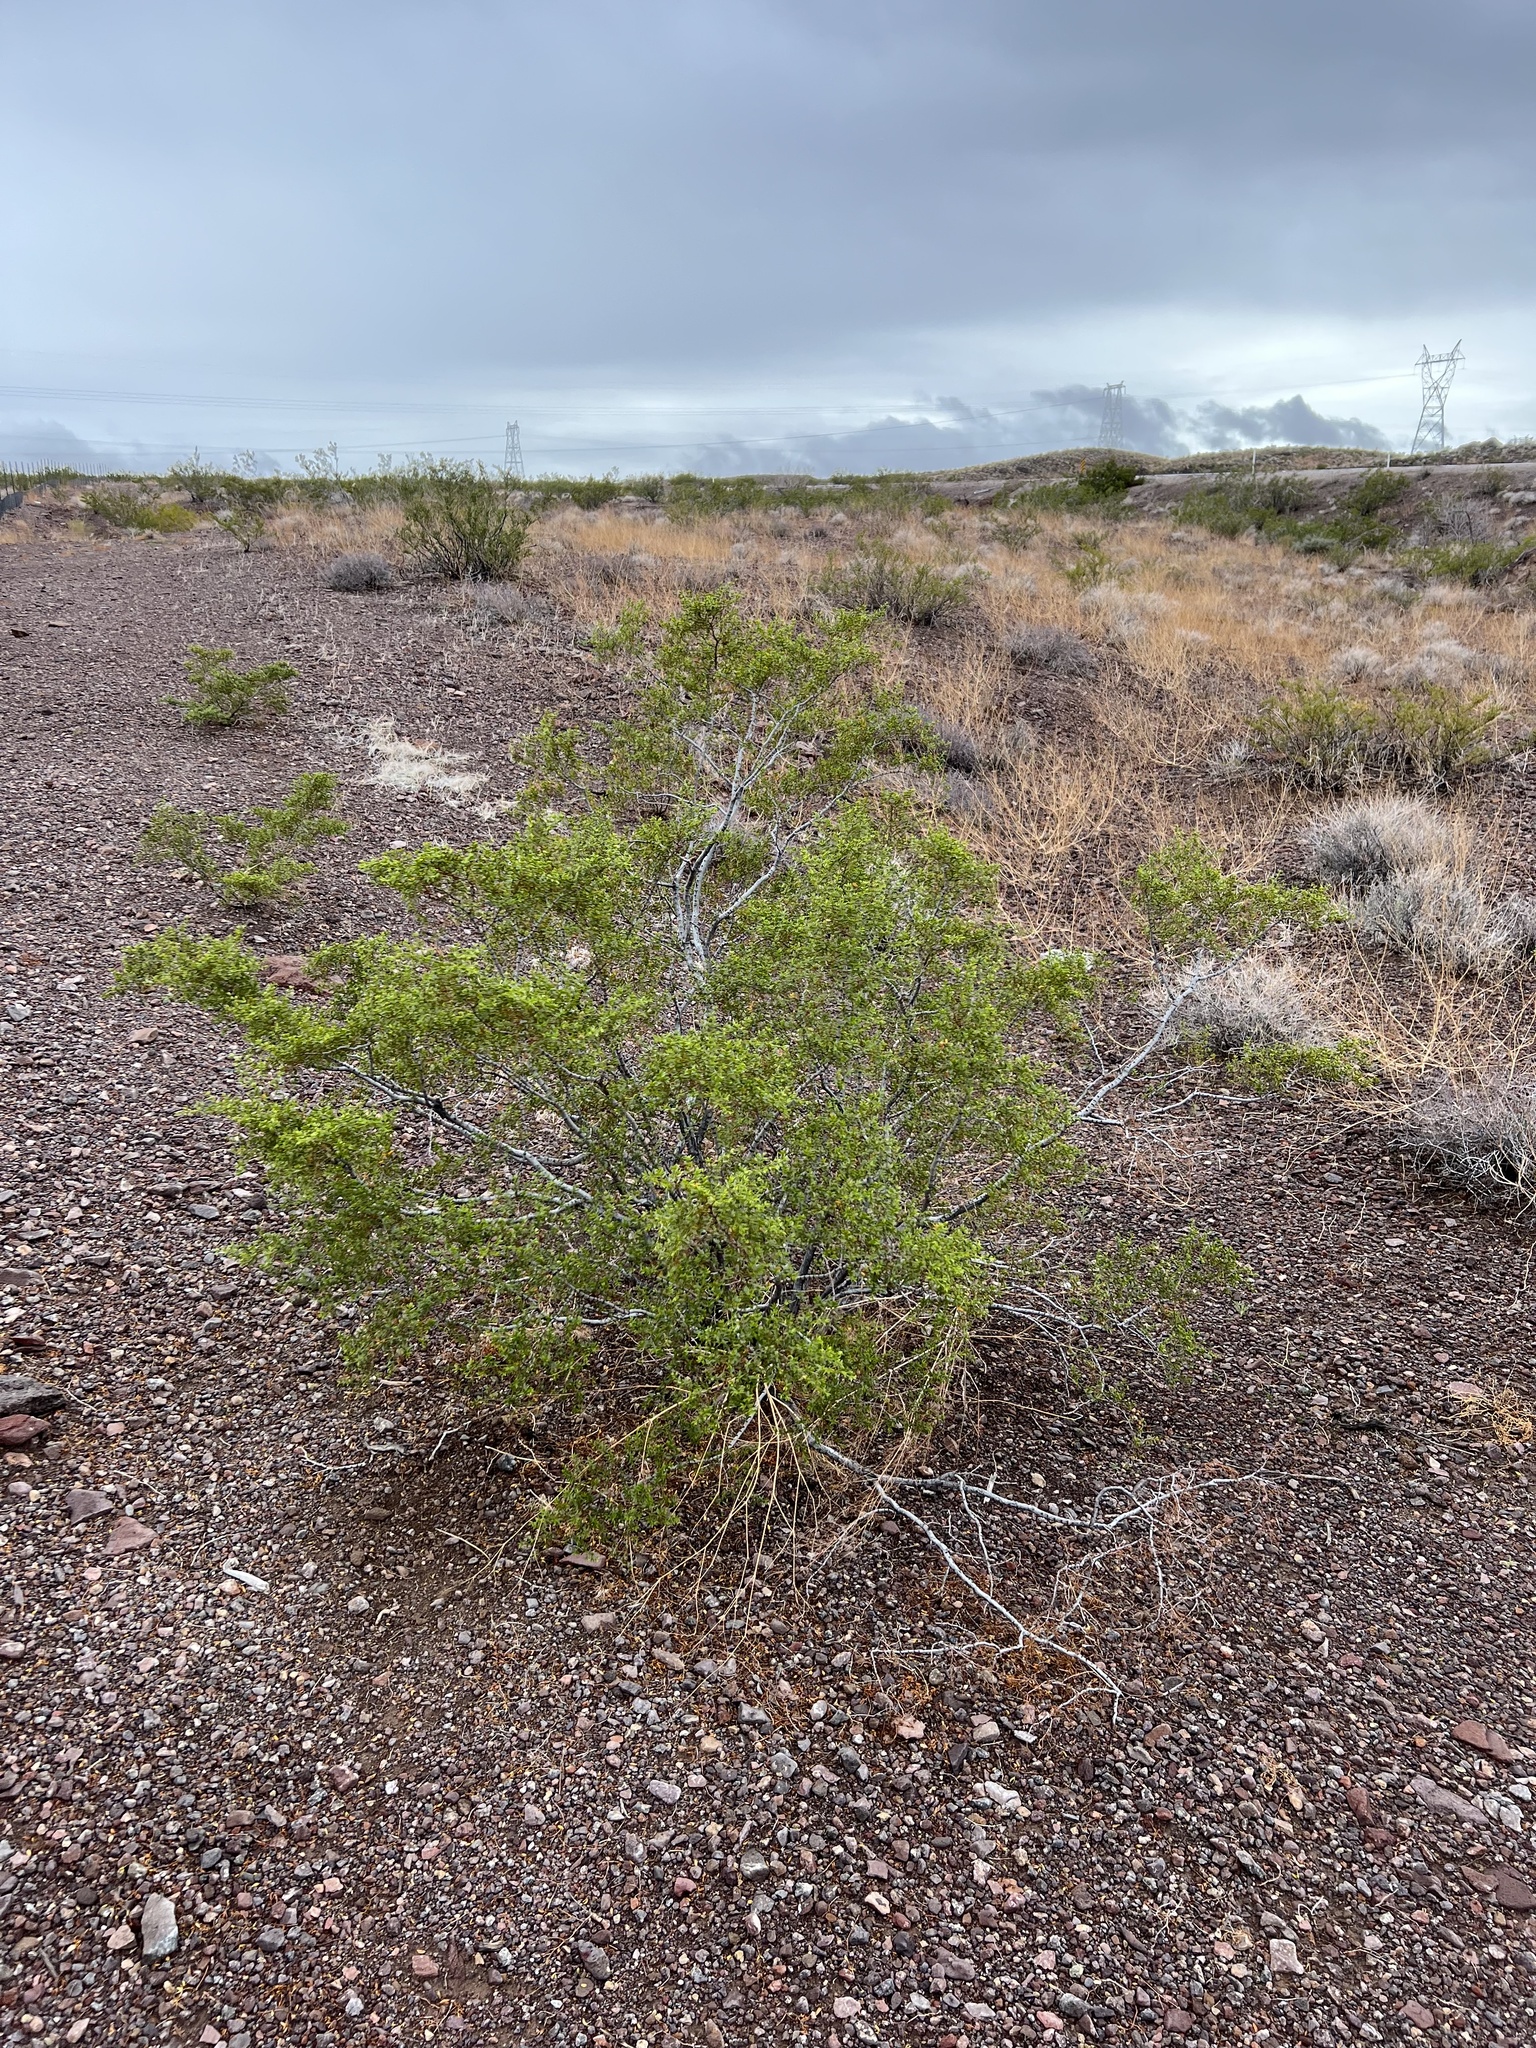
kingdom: Plantae
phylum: Tracheophyta
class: Magnoliopsida
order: Zygophyllales
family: Zygophyllaceae
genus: Larrea
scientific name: Larrea tridentata
